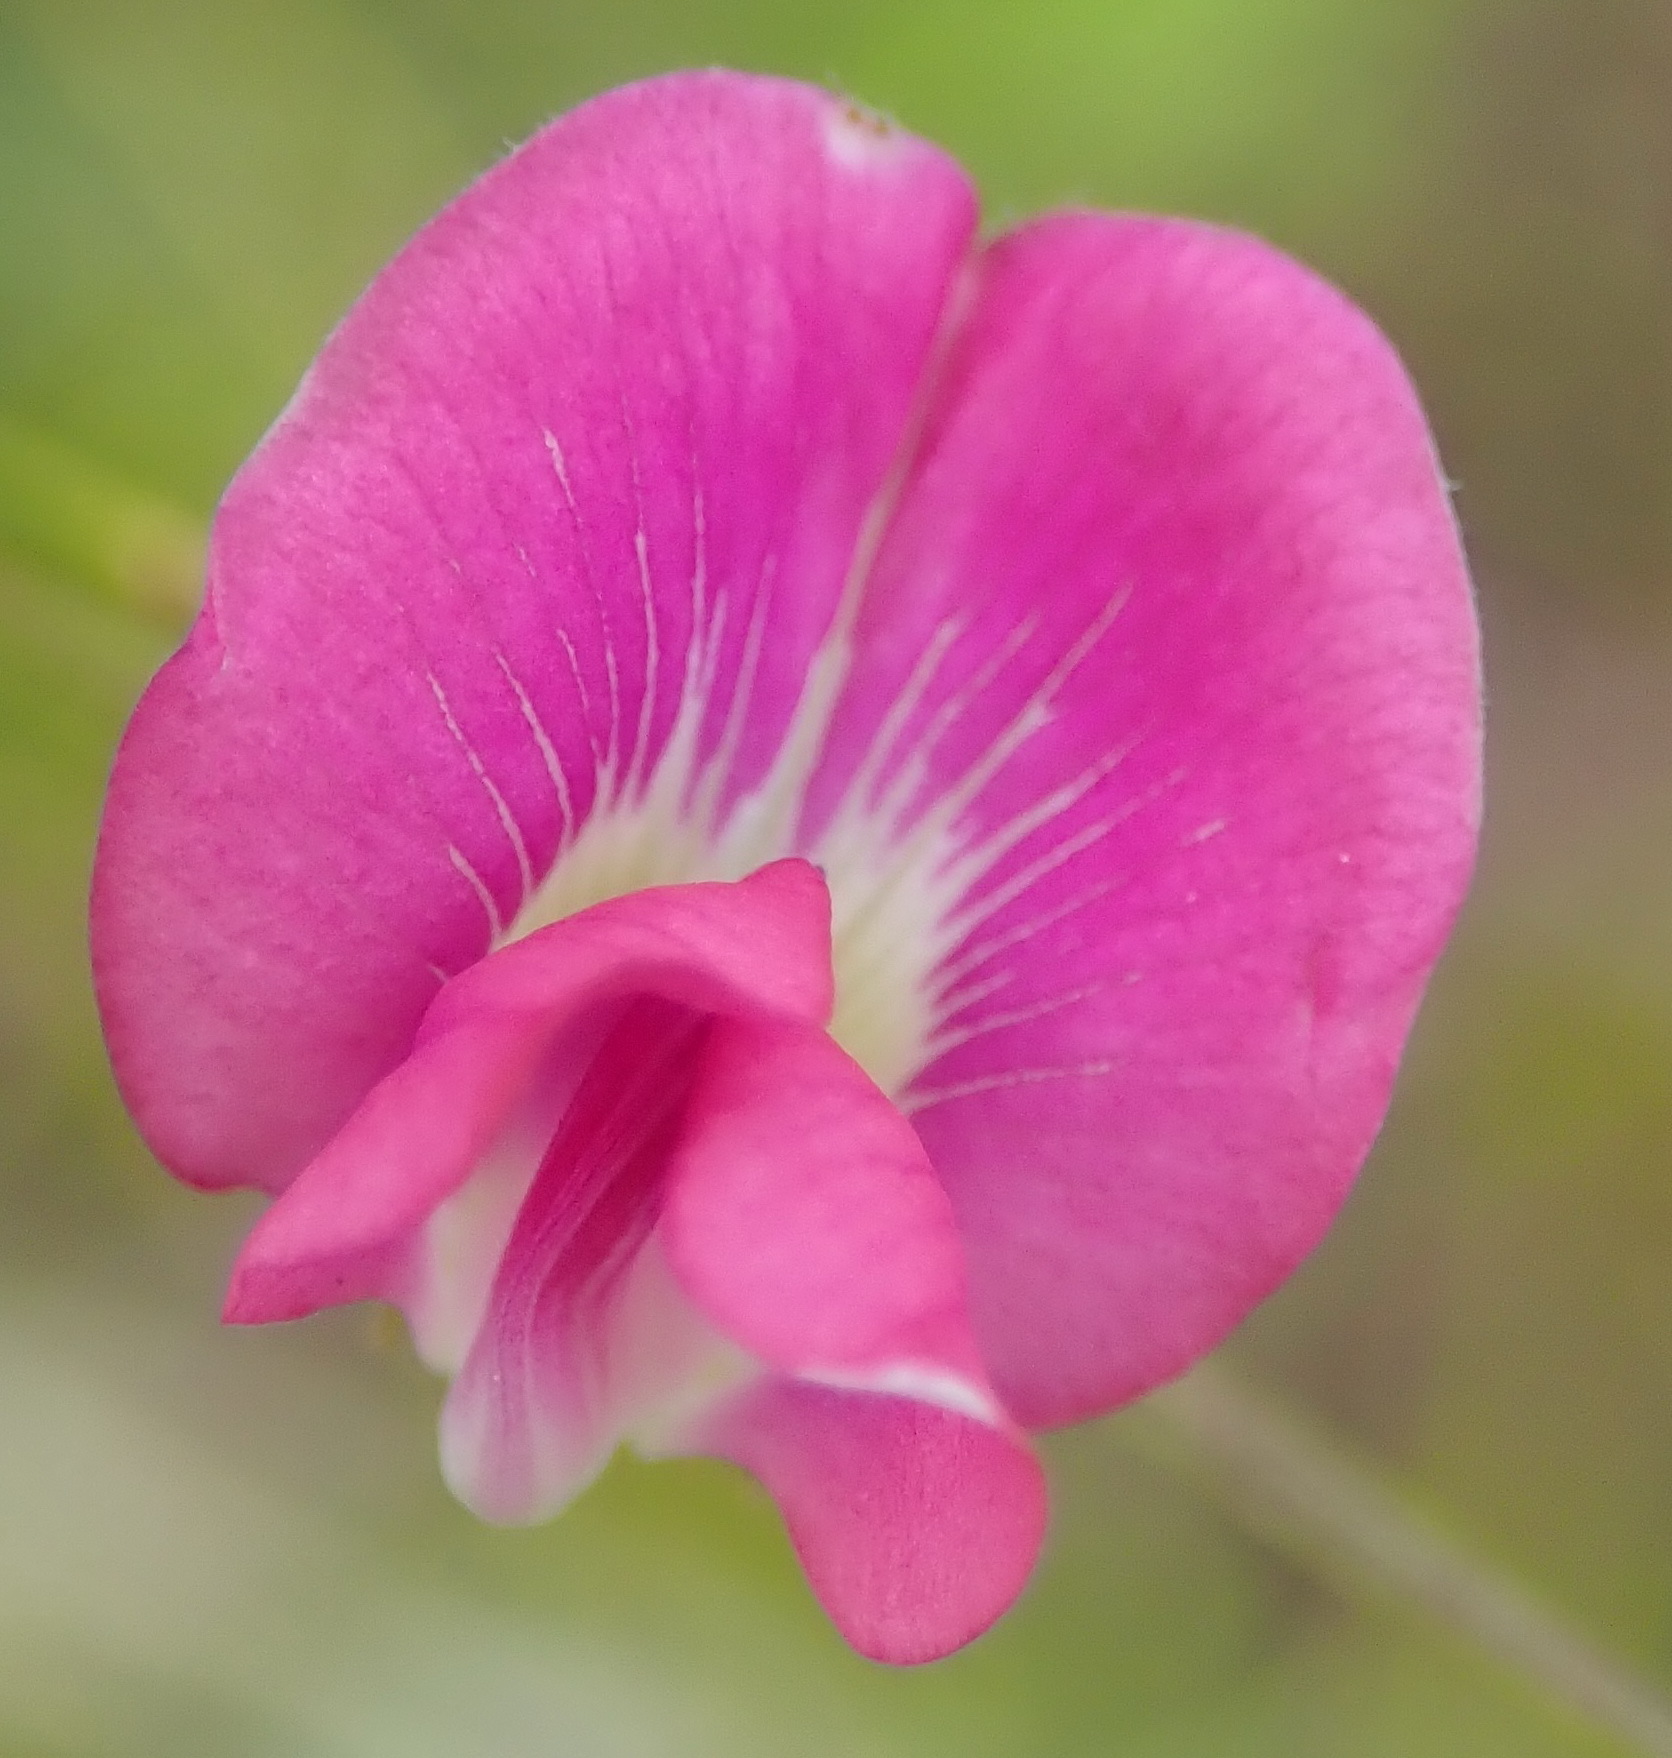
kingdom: Plantae
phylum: Tracheophyta
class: Magnoliopsida
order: Fabales
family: Fabaceae
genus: Tephrosia
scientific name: Tephrosia capensis
